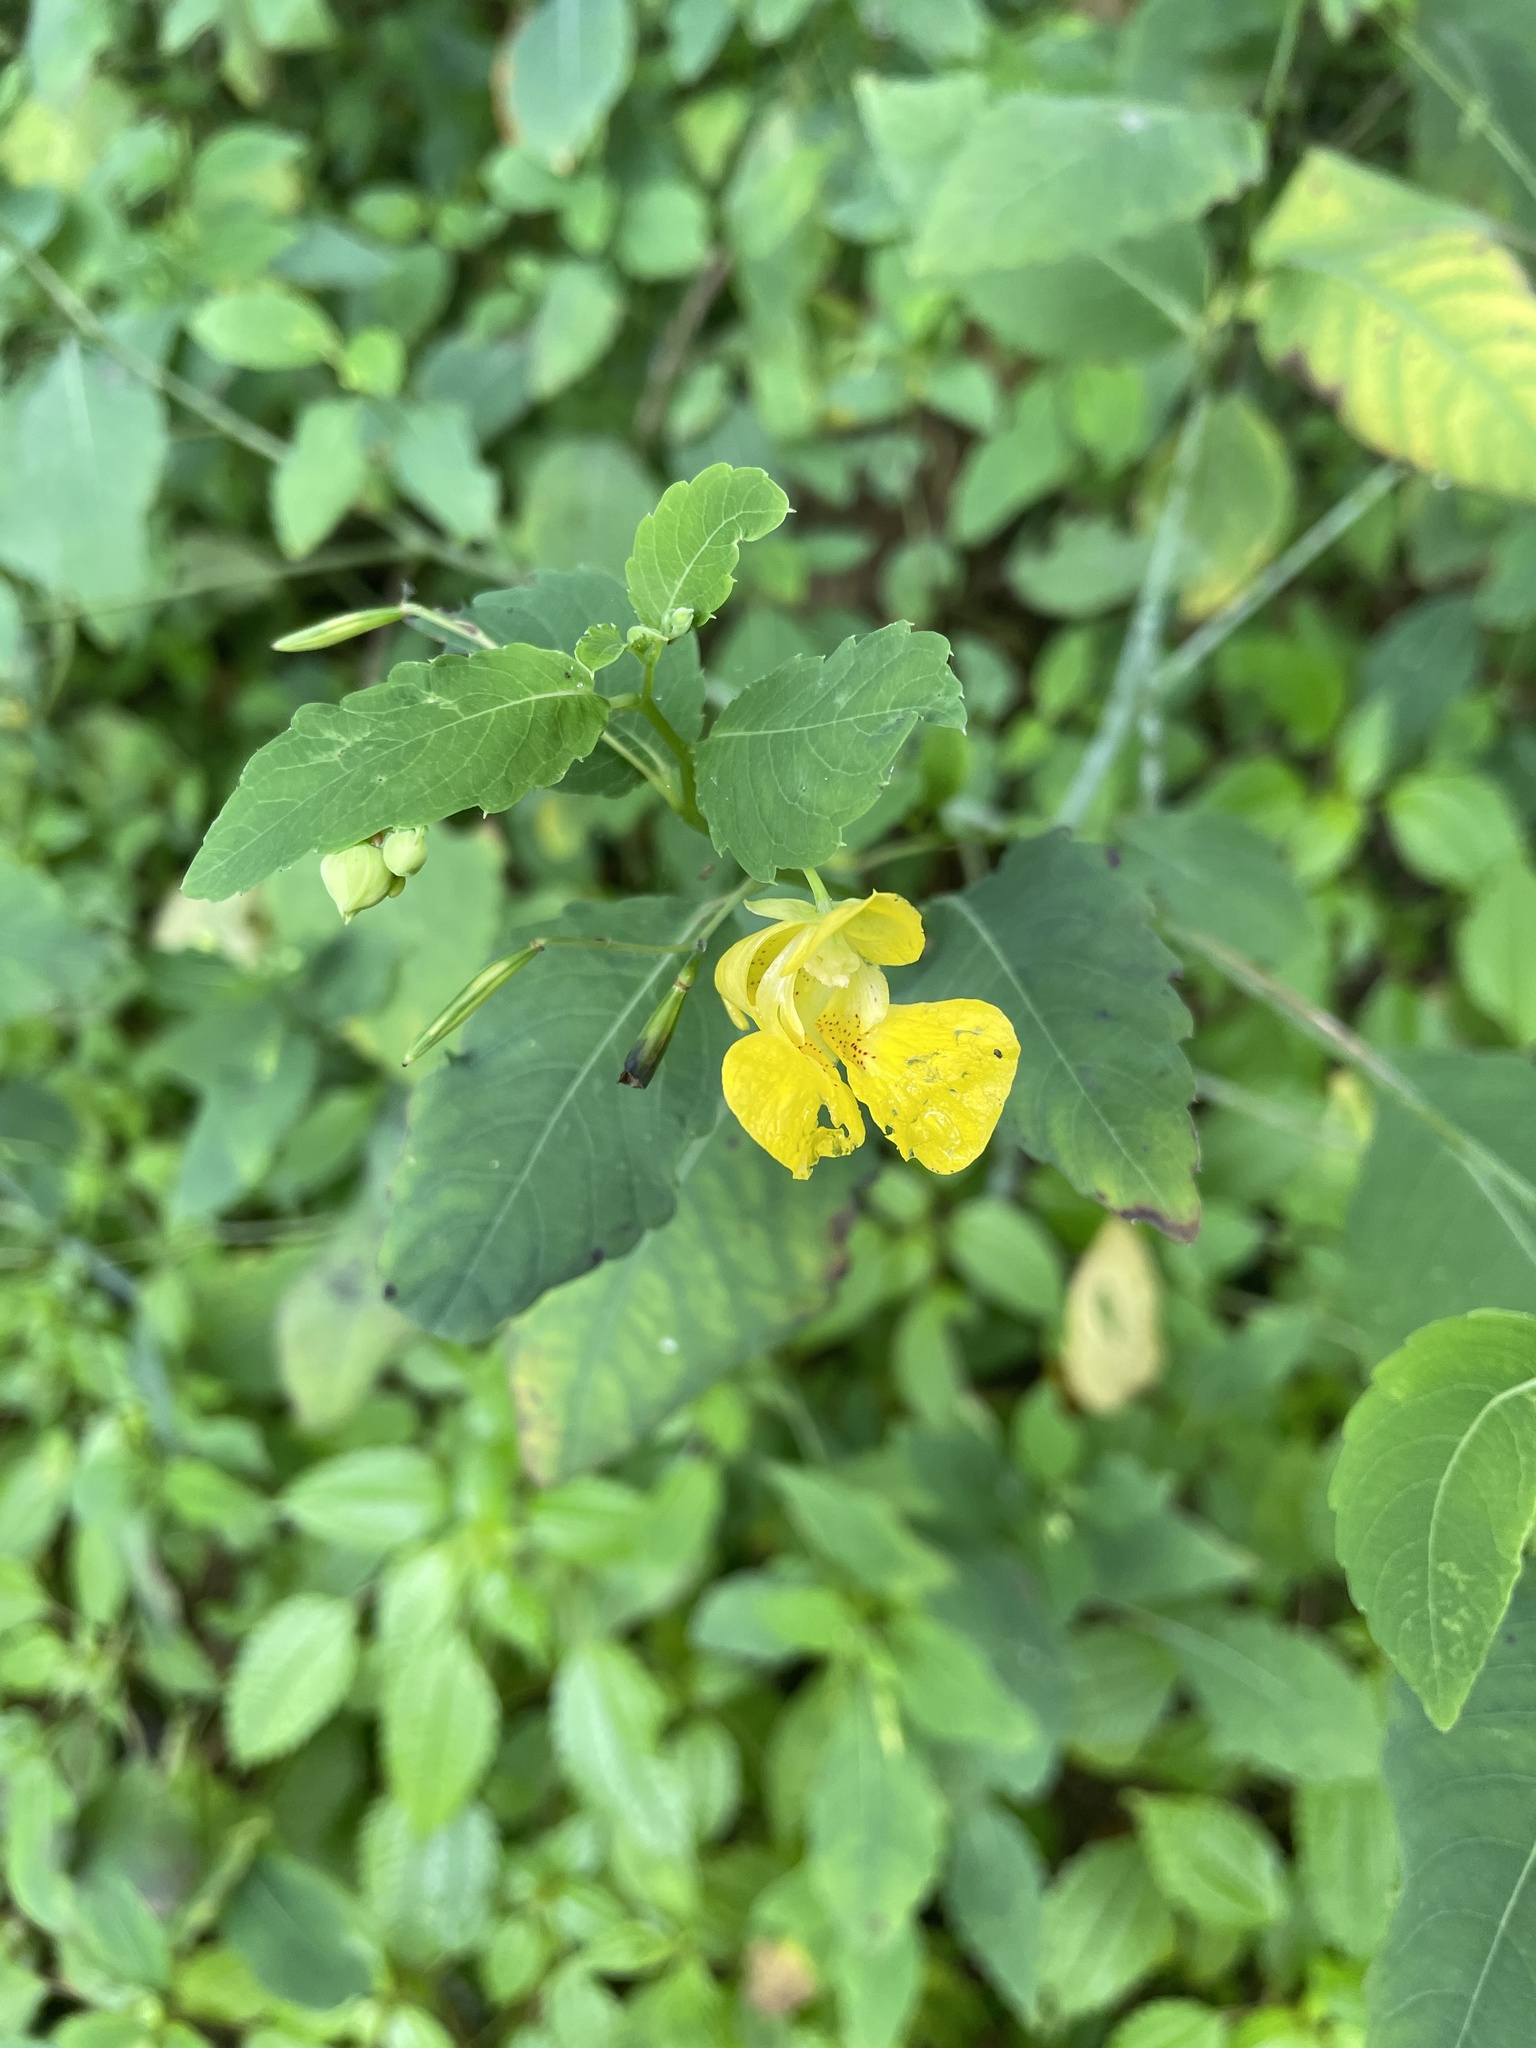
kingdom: Plantae
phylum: Tracheophyta
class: Magnoliopsida
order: Ericales
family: Balsaminaceae
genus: Impatiens
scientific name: Impatiens pallida
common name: Pale snapweed
